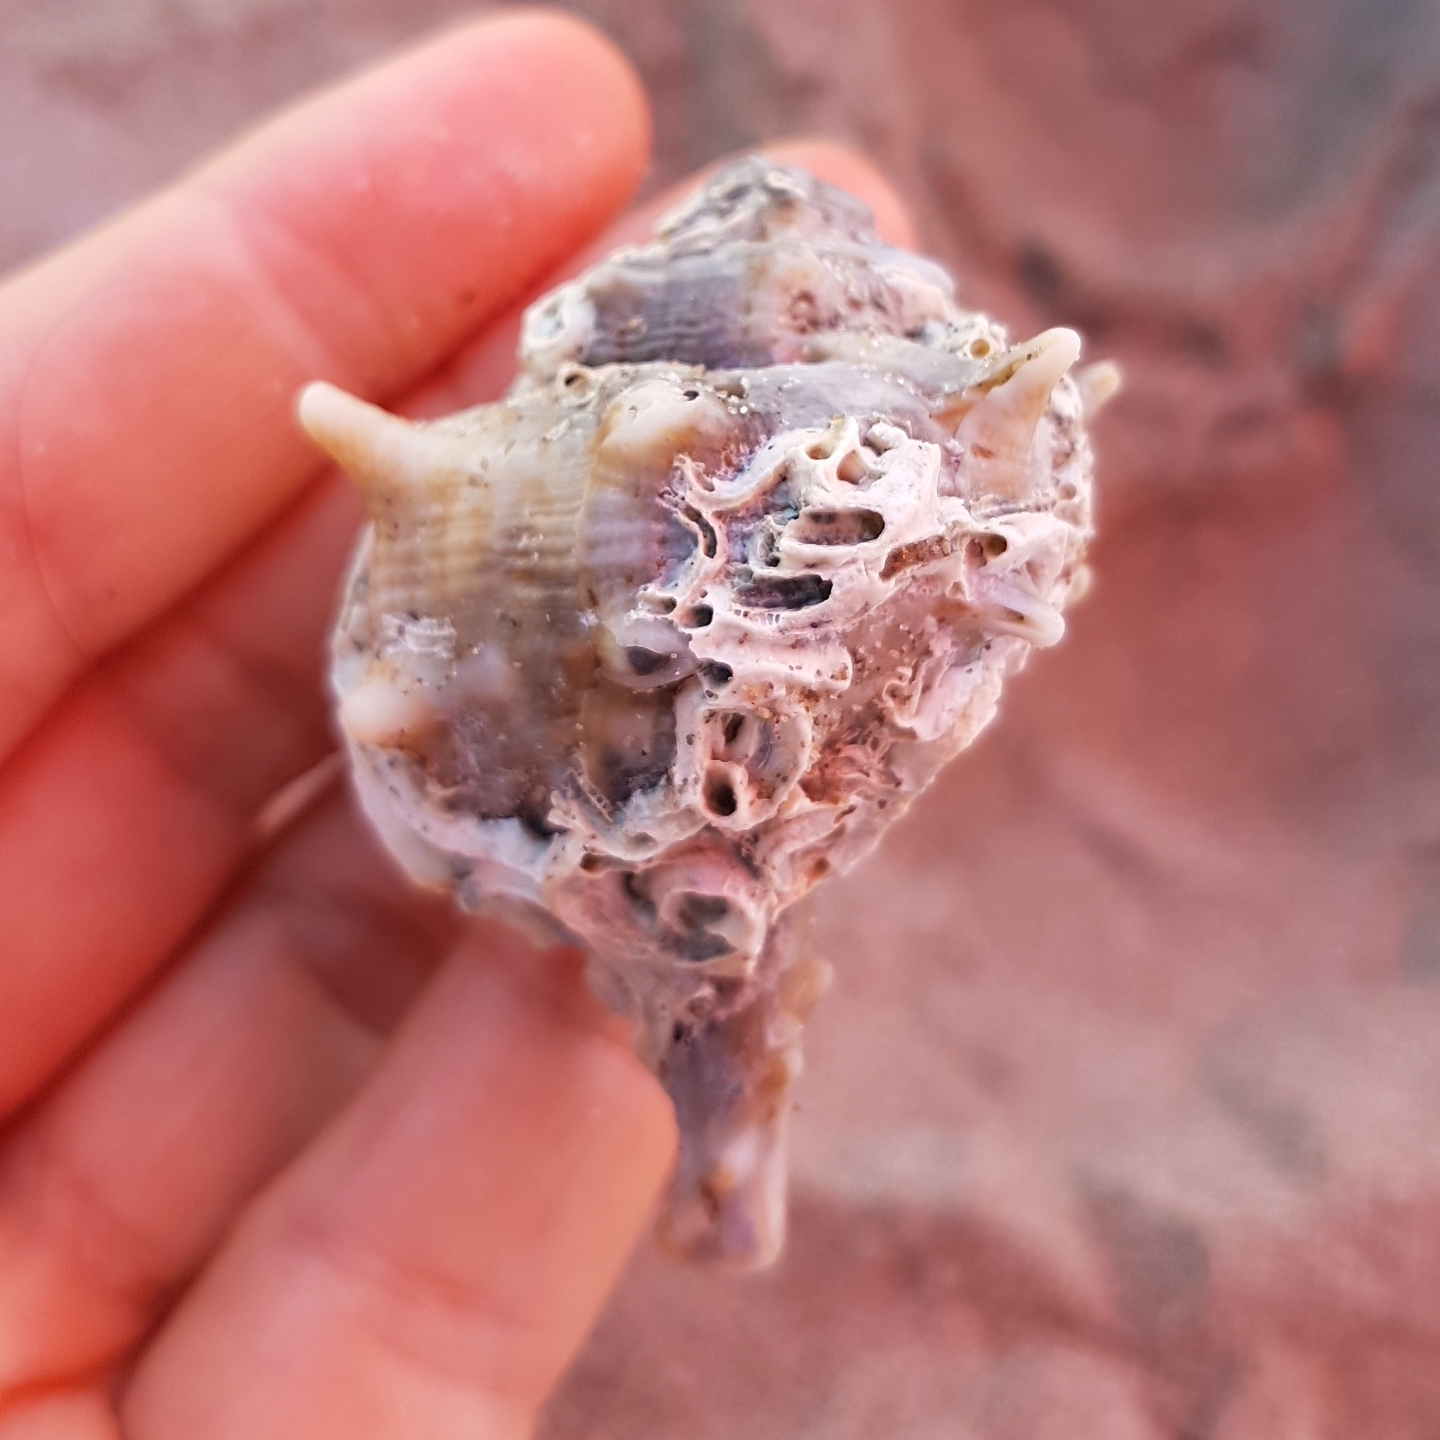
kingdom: Animalia
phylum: Mollusca
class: Gastropoda
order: Neogastropoda
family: Muricidae
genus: Bolinus
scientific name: Bolinus brandaris
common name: Dye murex
